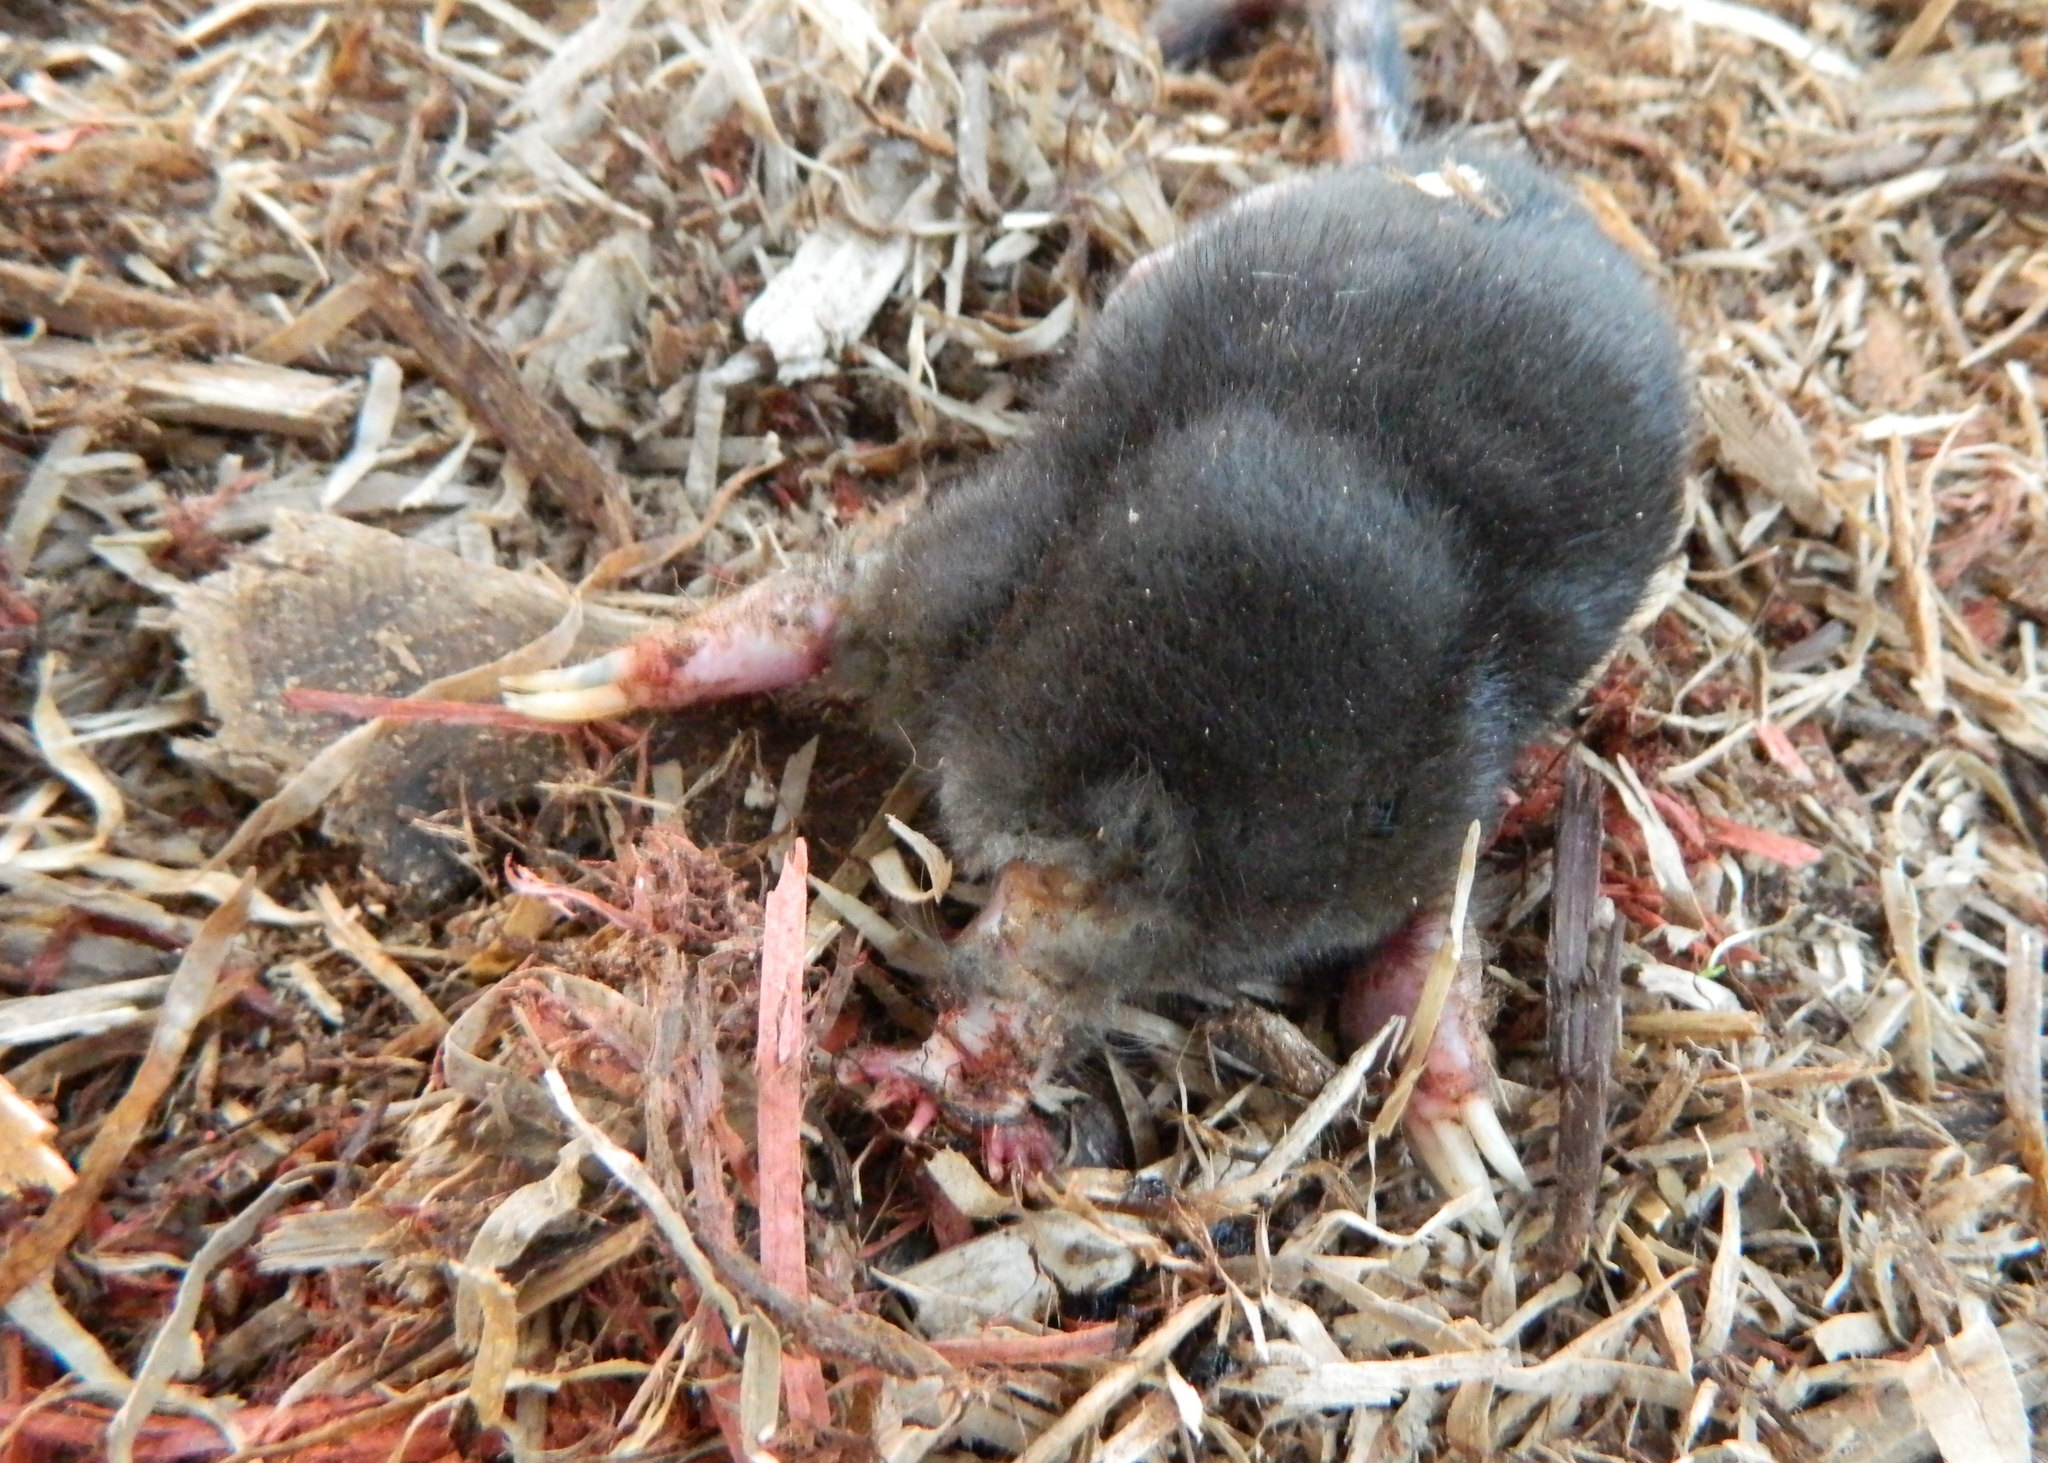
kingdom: Animalia
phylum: Chordata
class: Mammalia
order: Soricomorpha
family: Talpidae
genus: Condylura
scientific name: Condylura cristata
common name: Star-nosed mole
